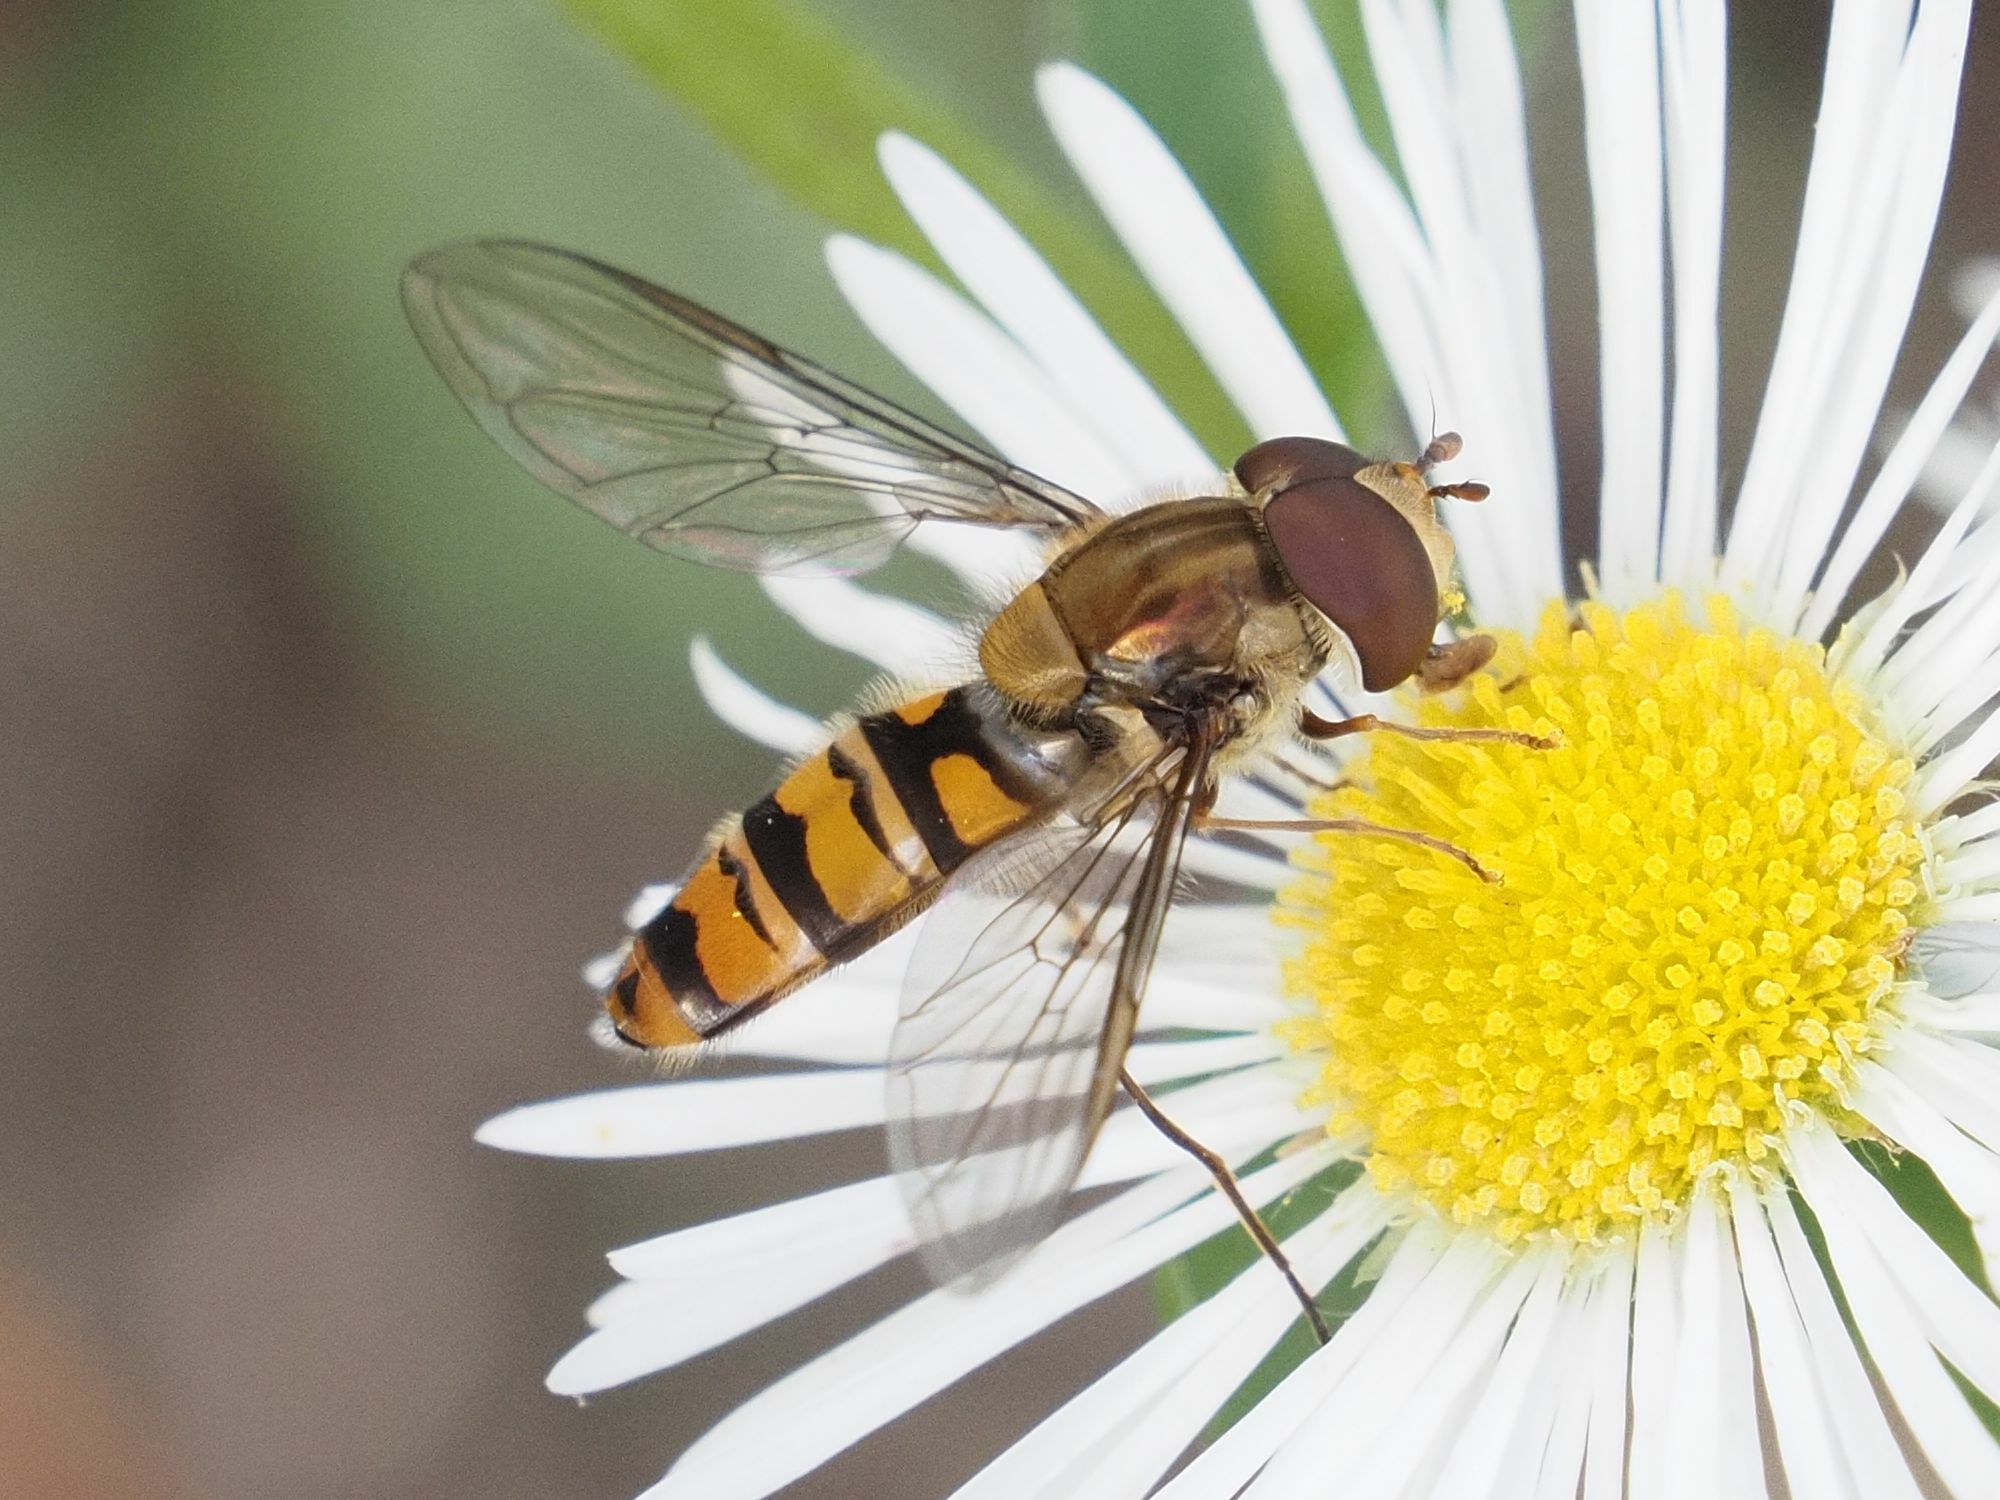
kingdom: Animalia
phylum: Arthropoda
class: Insecta
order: Diptera
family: Syrphidae
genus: Episyrphus
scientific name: Episyrphus balteatus
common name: Marmalade hoverfly
